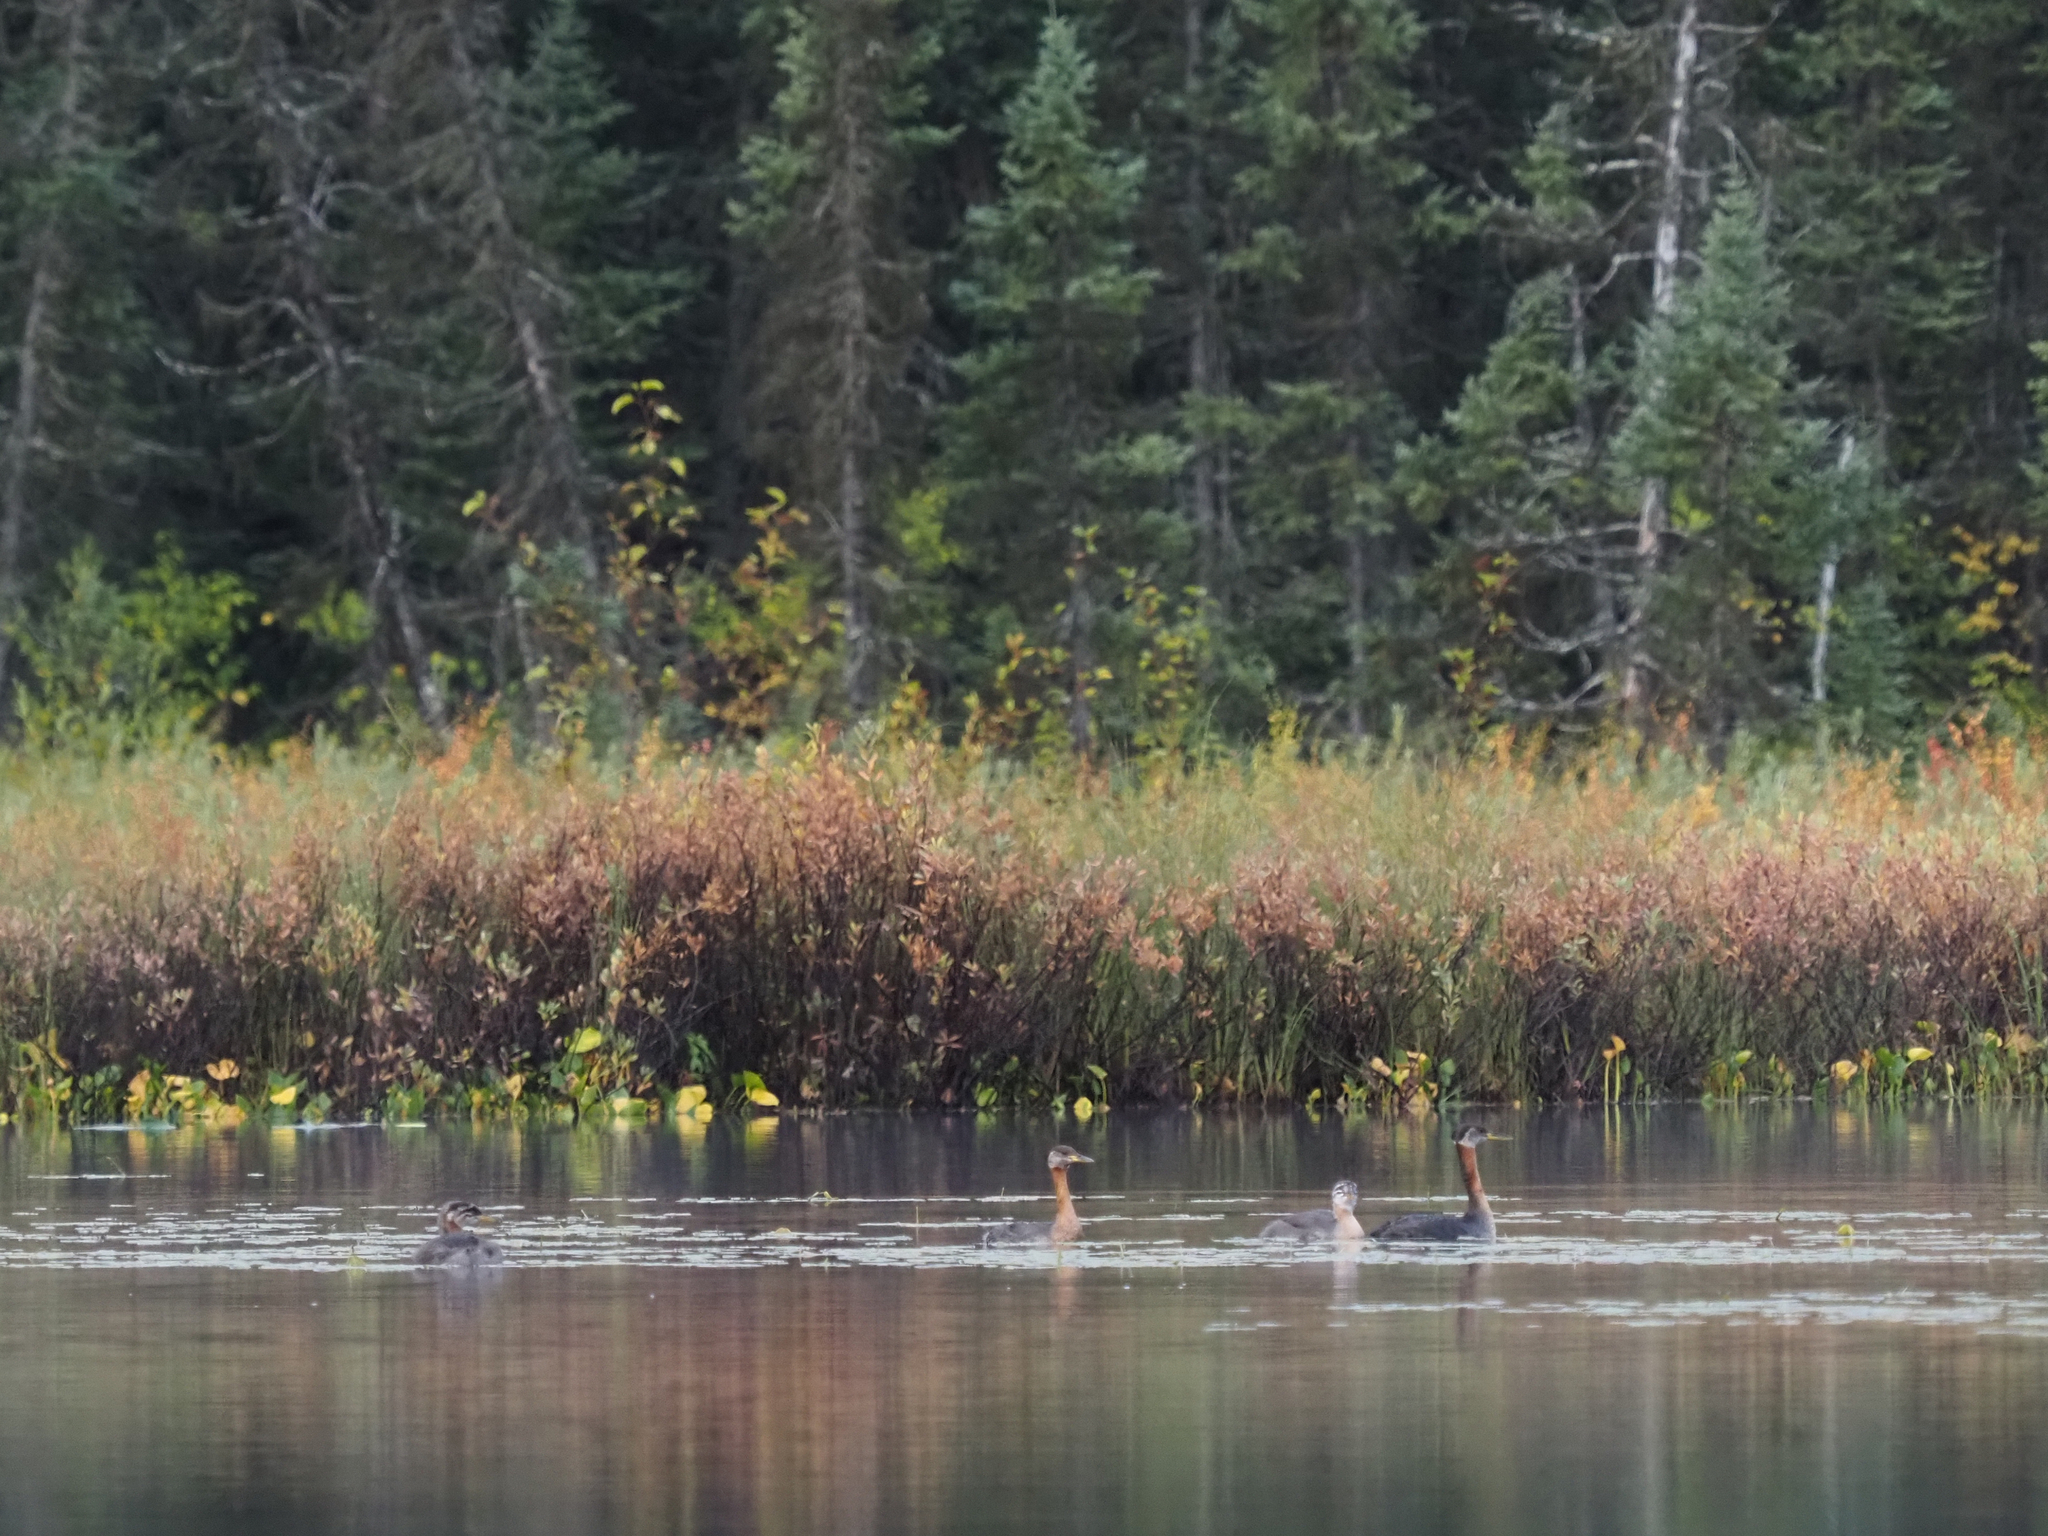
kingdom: Animalia
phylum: Chordata
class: Aves
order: Podicipediformes
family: Podicipedidae
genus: Podiceps
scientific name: Podiceps grisegena
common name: Red-necked grebe
